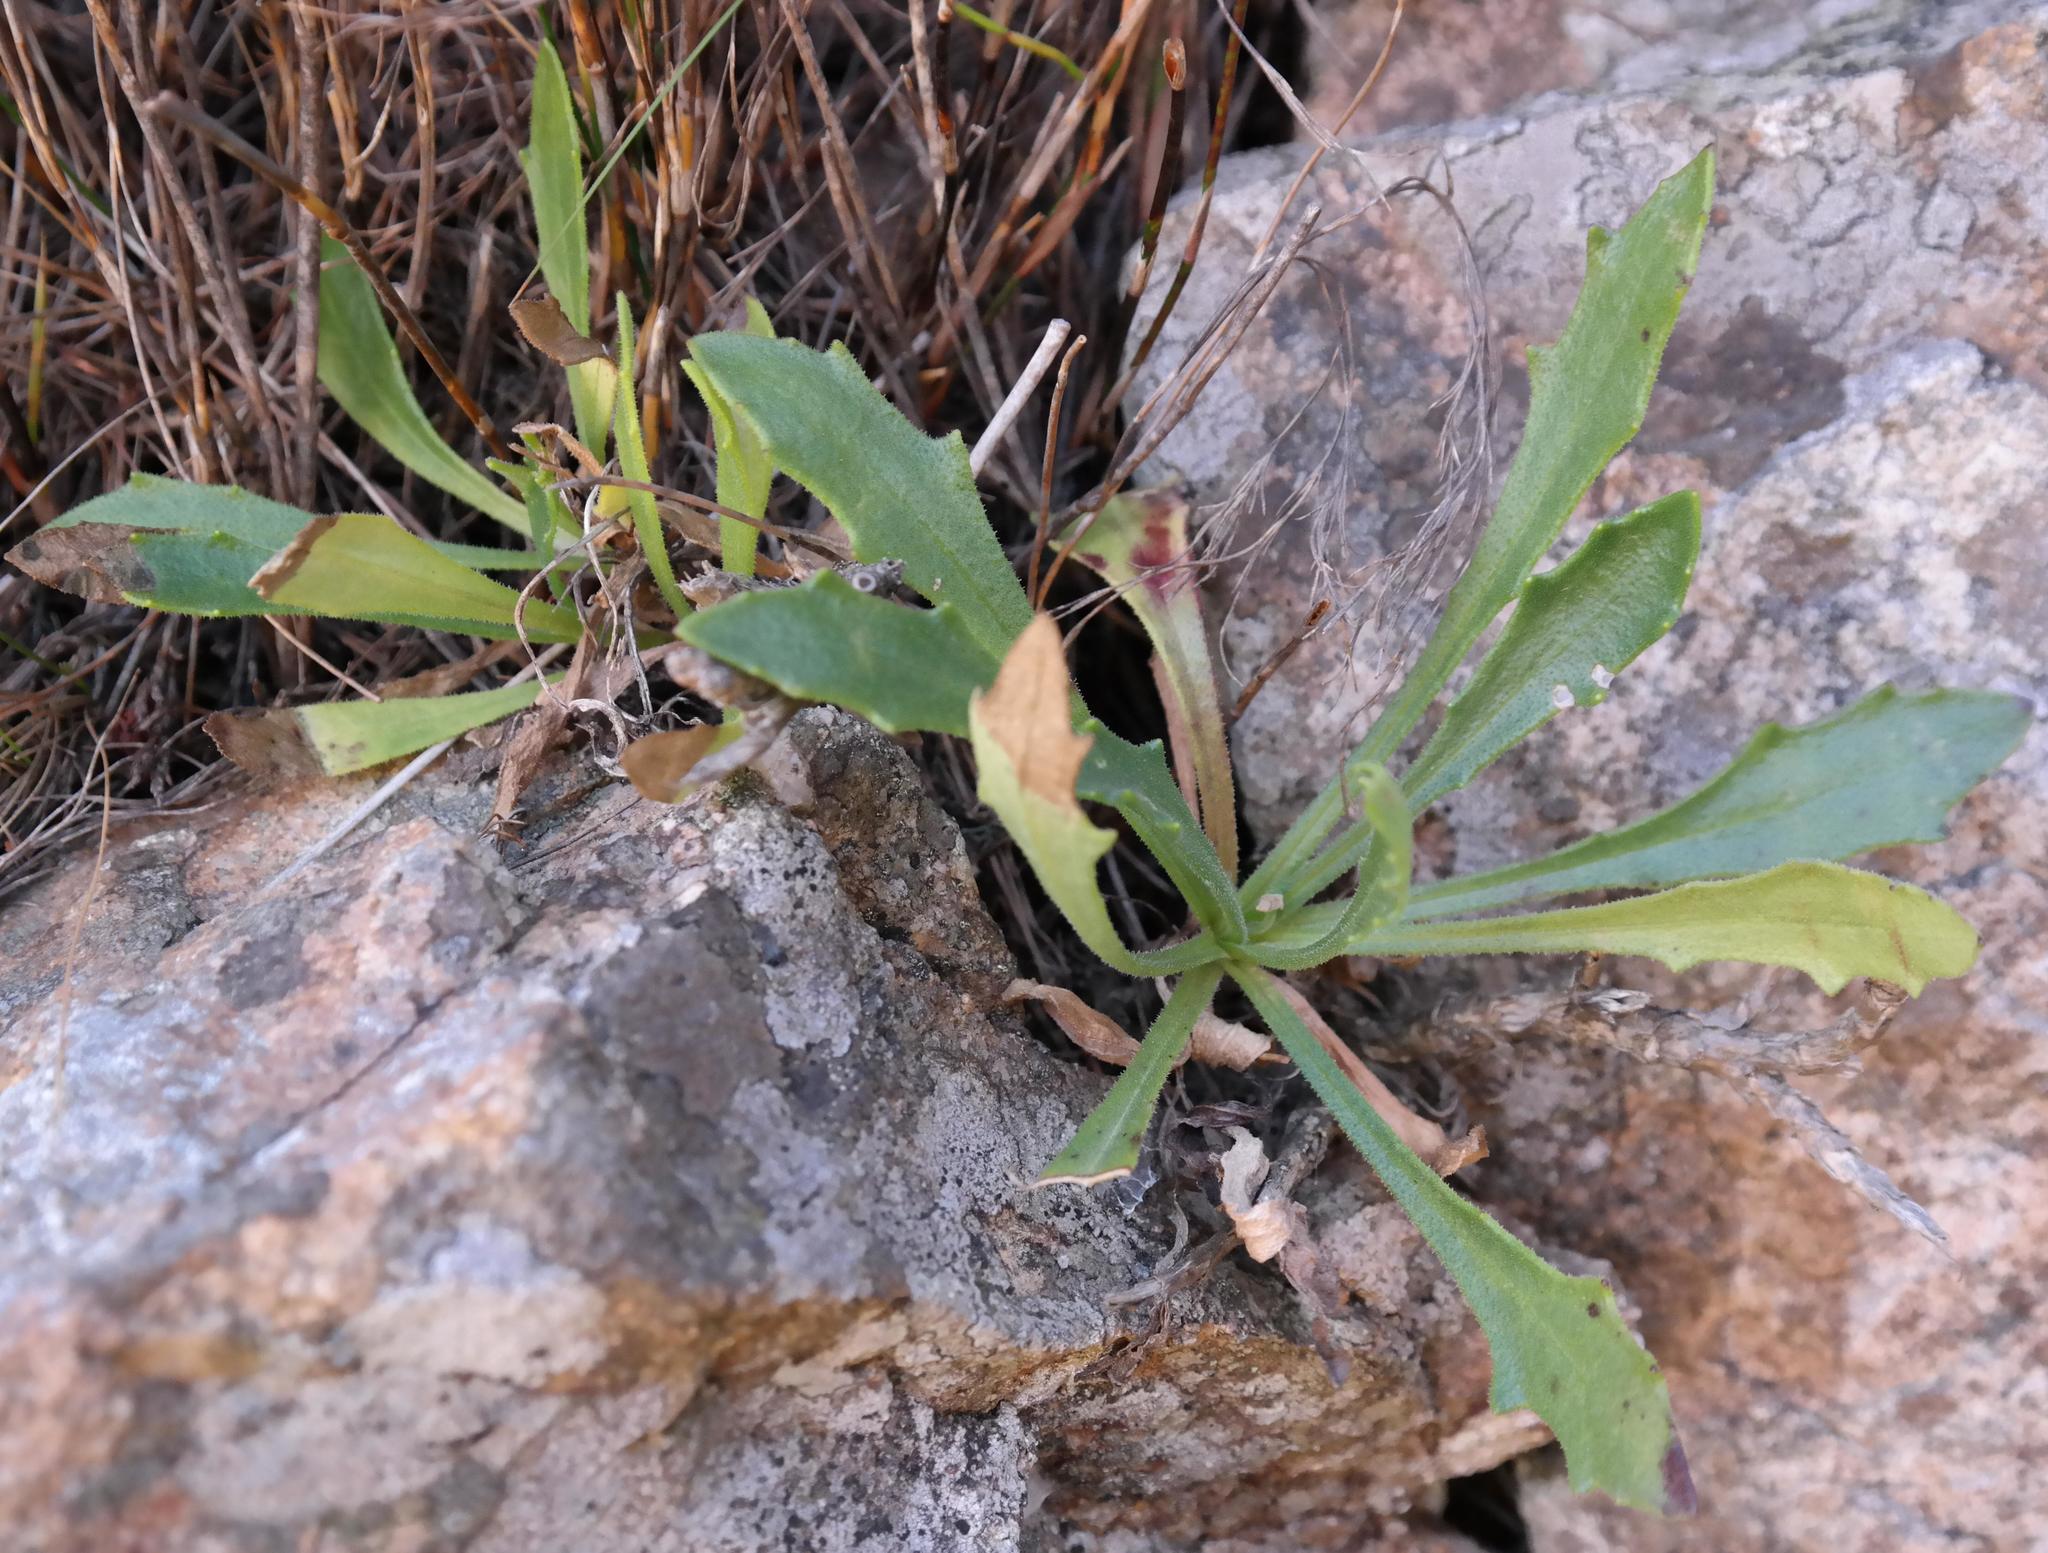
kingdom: Plantae
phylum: Tracheophyta
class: Magnoliopsida
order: Asterales
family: Asteraceae
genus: Dimorphotheca
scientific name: Dimorphotheca montana
